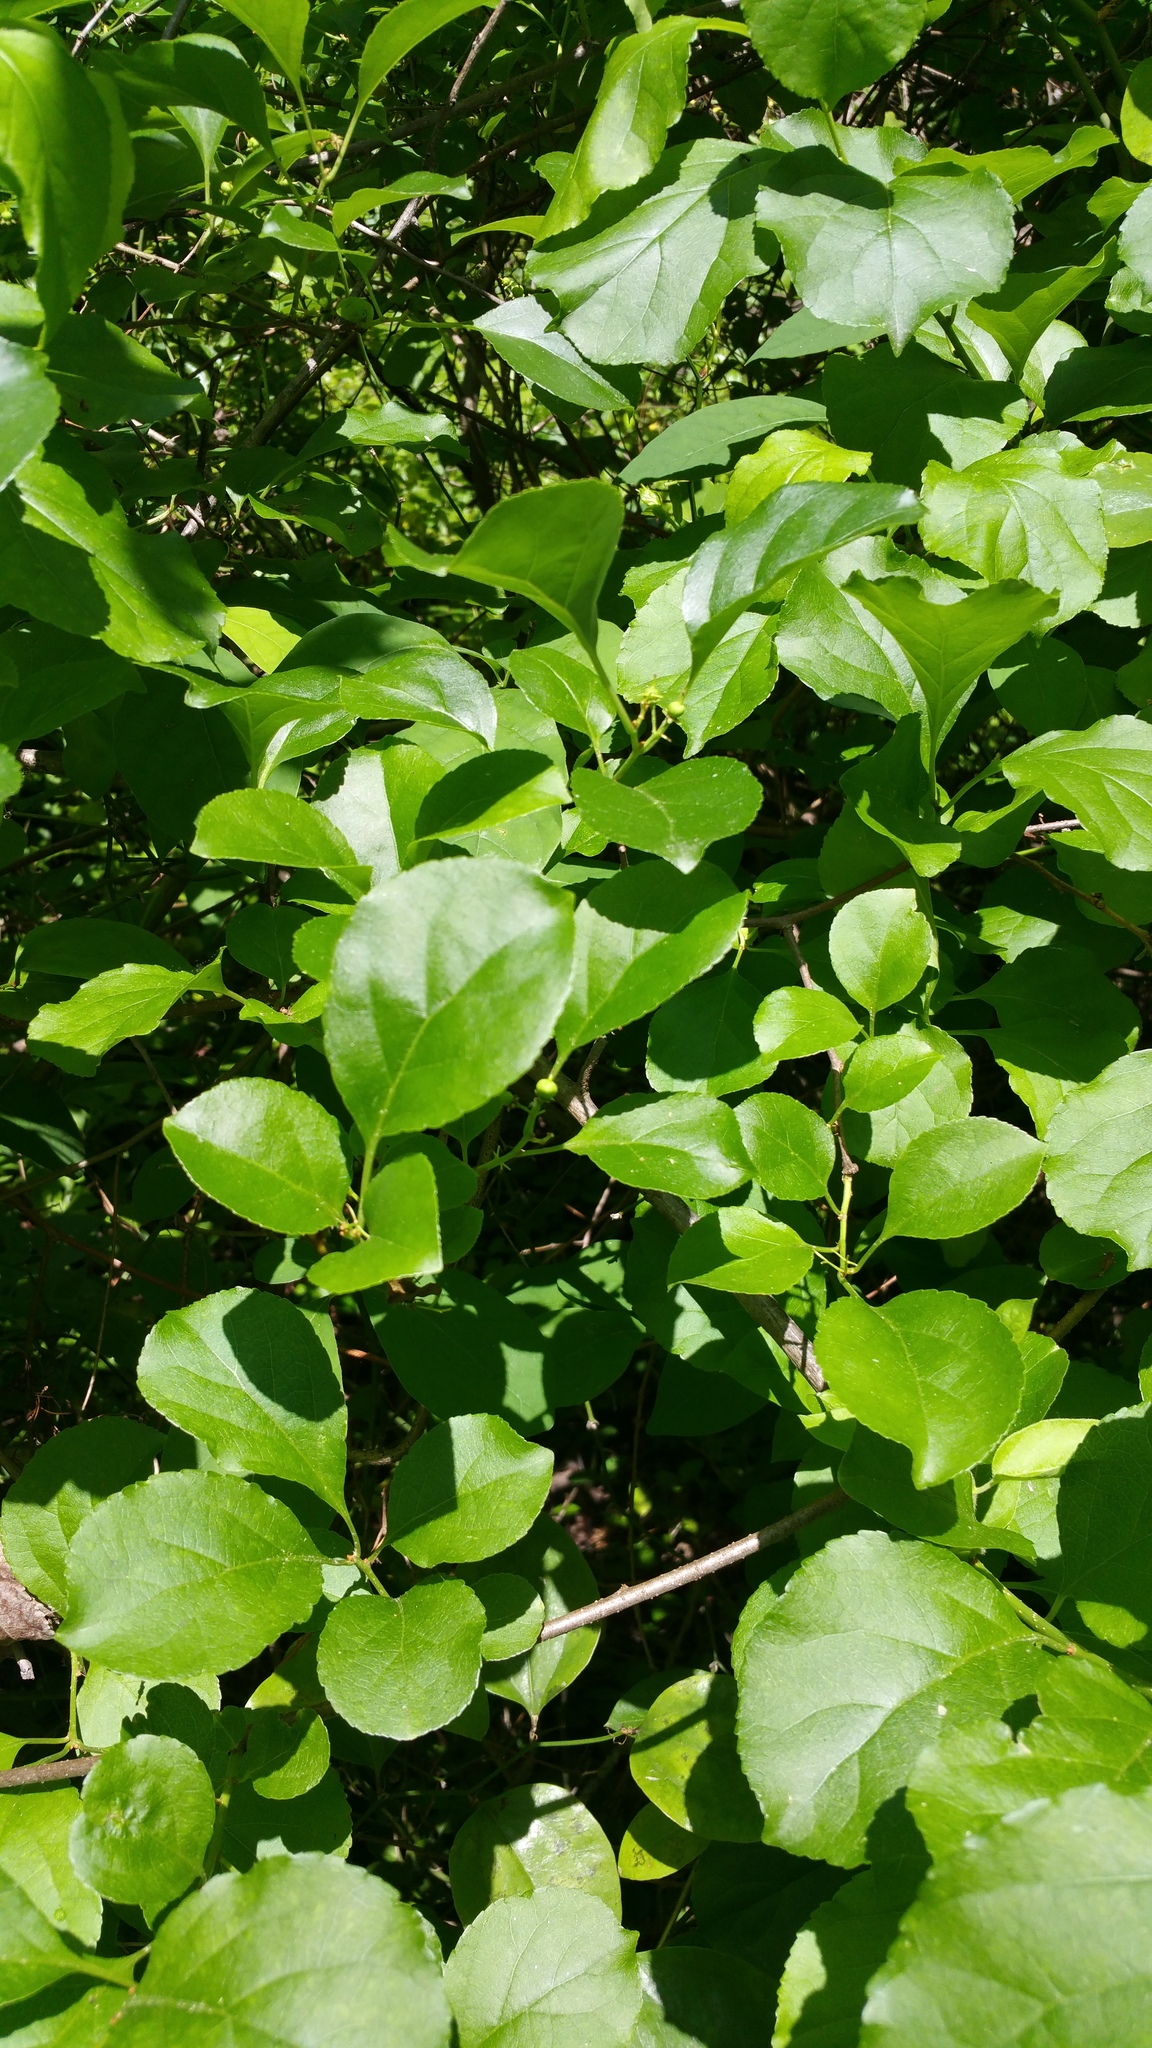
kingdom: Plantae
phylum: Tracheophyta
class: Magnoliopsida
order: Celastrales
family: Celastraceae
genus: Celastrus
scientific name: Celastrus orbiculatus
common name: Oriental bittersweet
